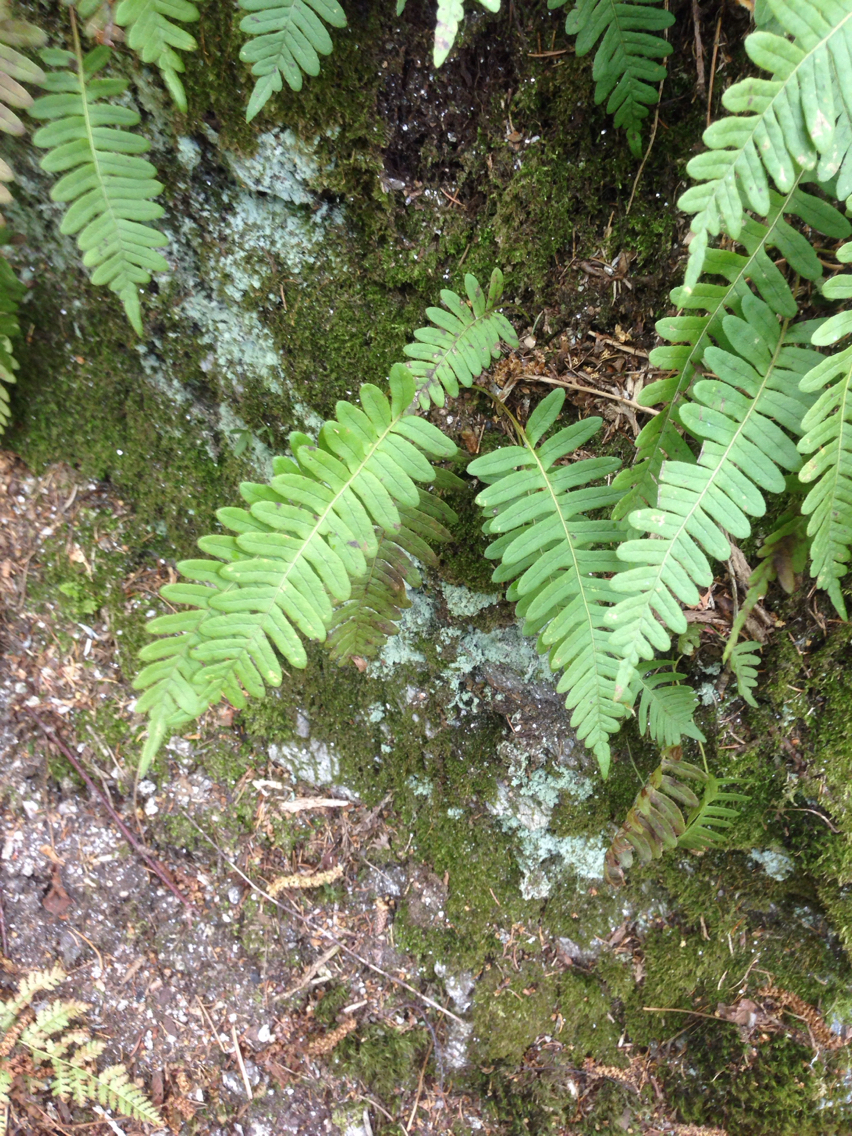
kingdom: Plantae
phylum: Tracheophyta
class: Polypodiopsida
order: Polypodiales
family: Polypodiaceae
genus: Polypodium
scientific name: Polypodium virginianum
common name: American wall fern
